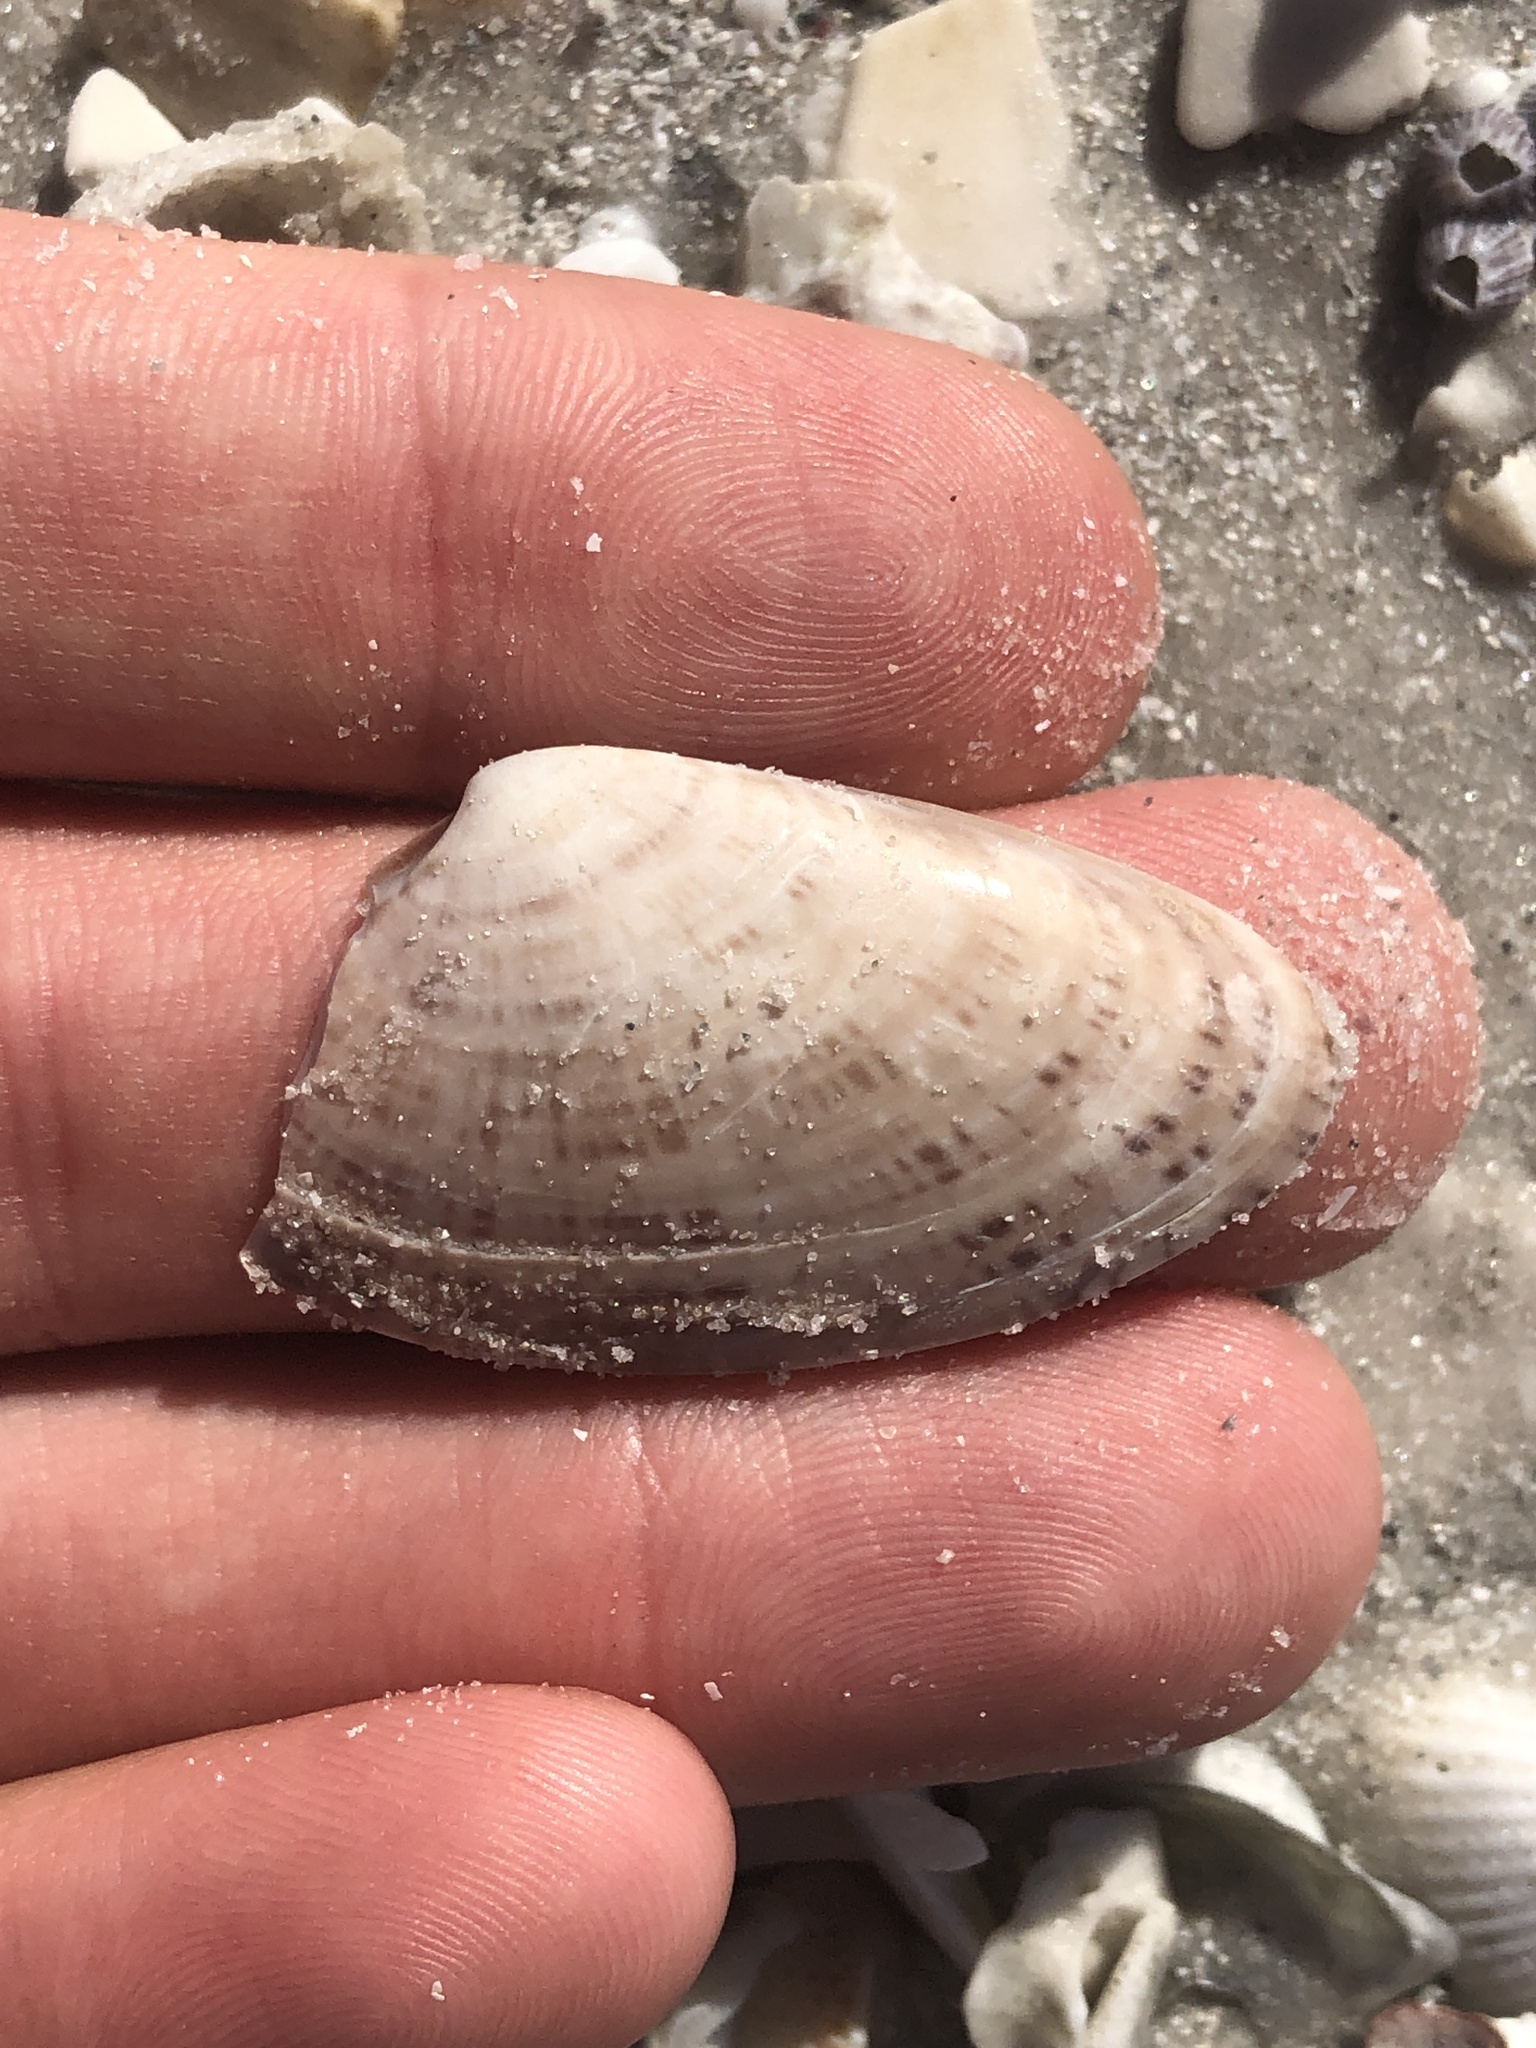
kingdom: Animalia
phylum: Mollusca
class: Bivalvia
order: Venerida
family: Veneridae
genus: Macrocallista
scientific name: Macrocallista nimbosa
